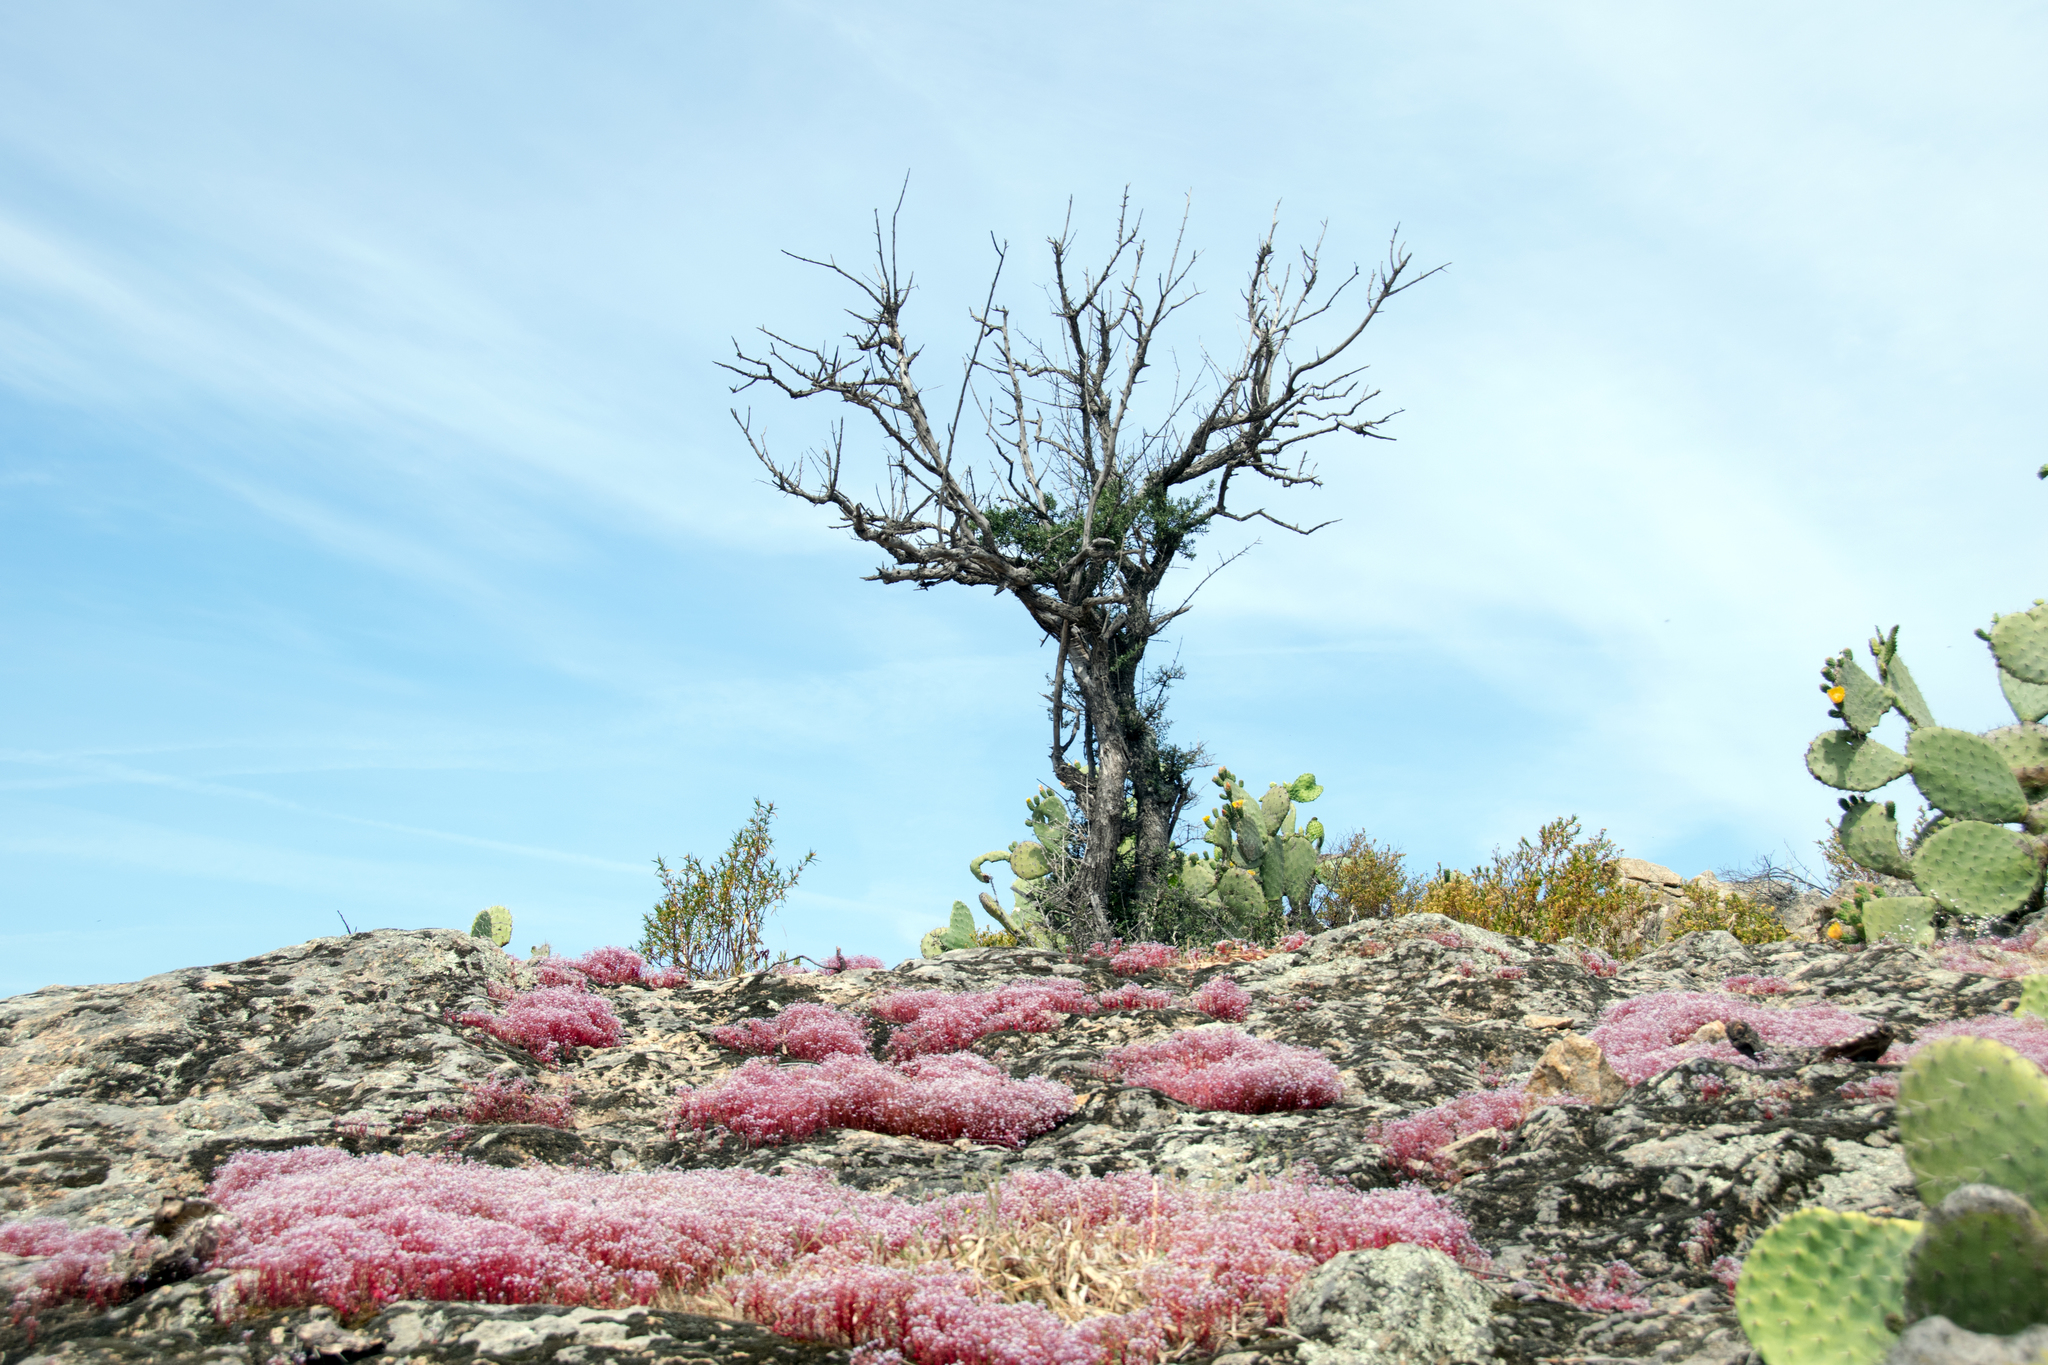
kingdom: Plantae
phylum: Tracheophyta
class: Magnoliopsida
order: Saxifragales
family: Crassulaceae
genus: Sedum
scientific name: Sedum caeruleum
